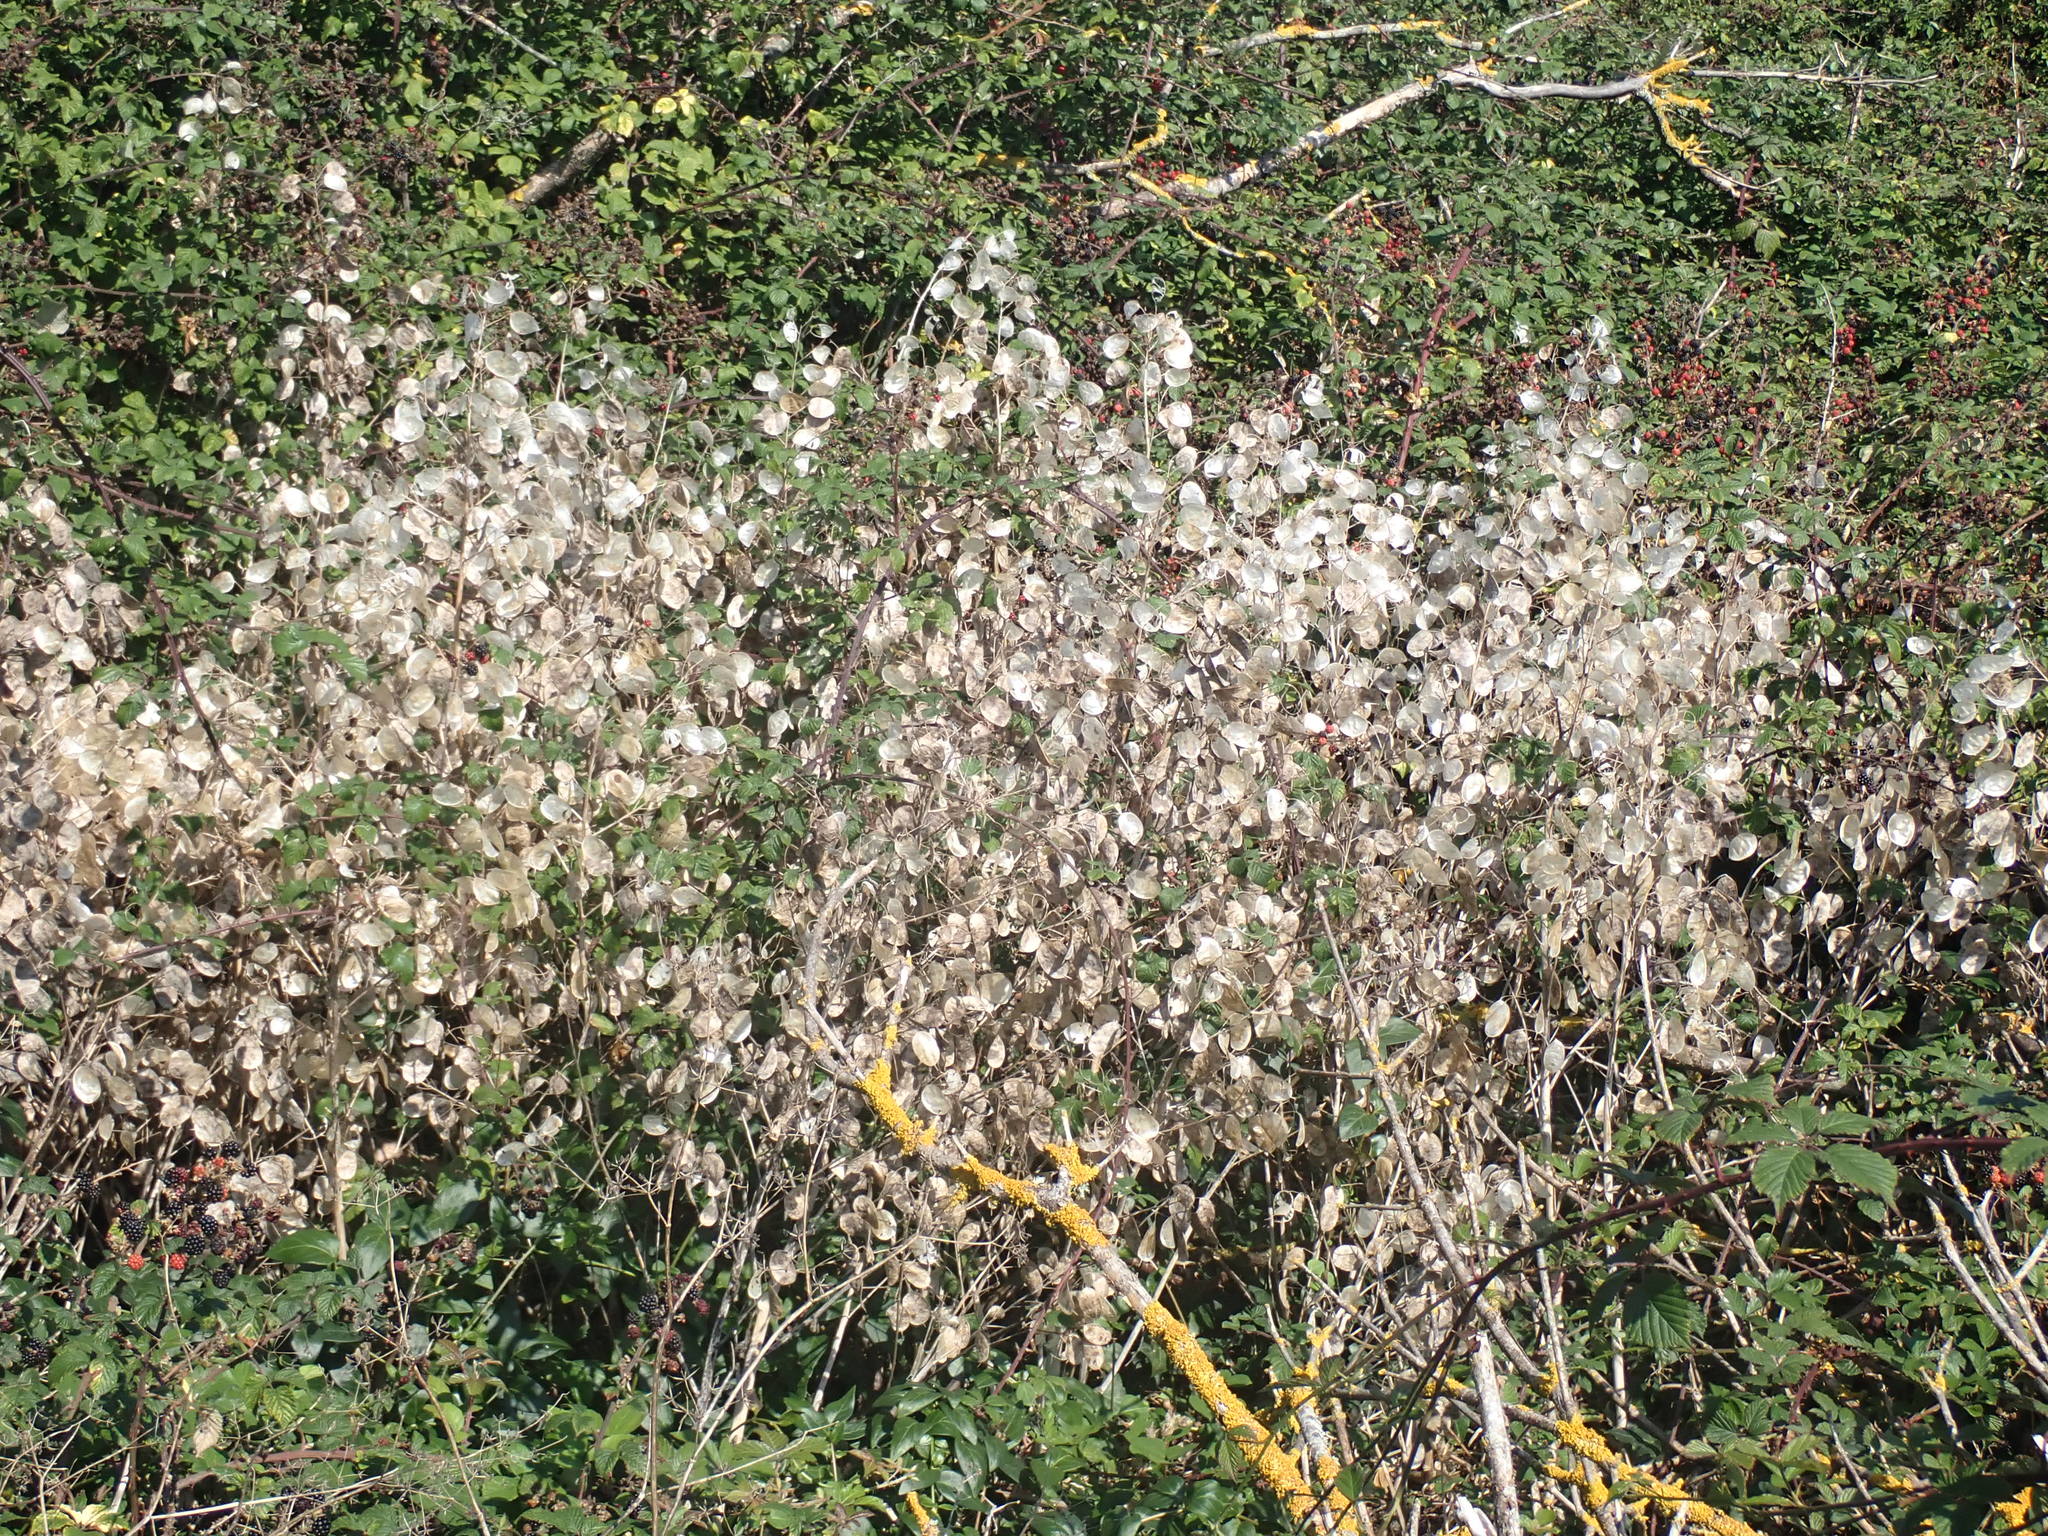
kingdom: Plantae
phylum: Tracheophyta
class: Magnoliopsida
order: Brassicales
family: Brassicaceae
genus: Lunaria
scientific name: Lunaria annua
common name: Honesty
